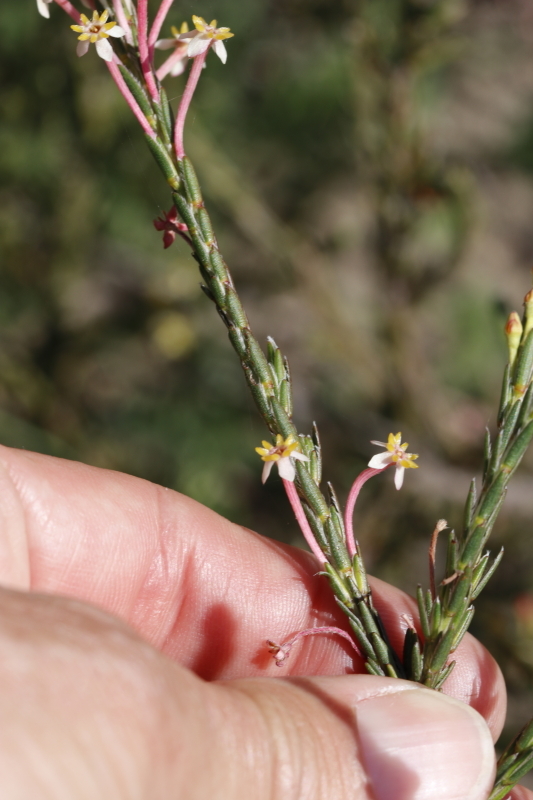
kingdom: Plantae
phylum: Tracheophyta
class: Magnoliopsida
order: Malvales
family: Thymelaeaceae
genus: Struthiola
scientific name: Struthiola ciliata
